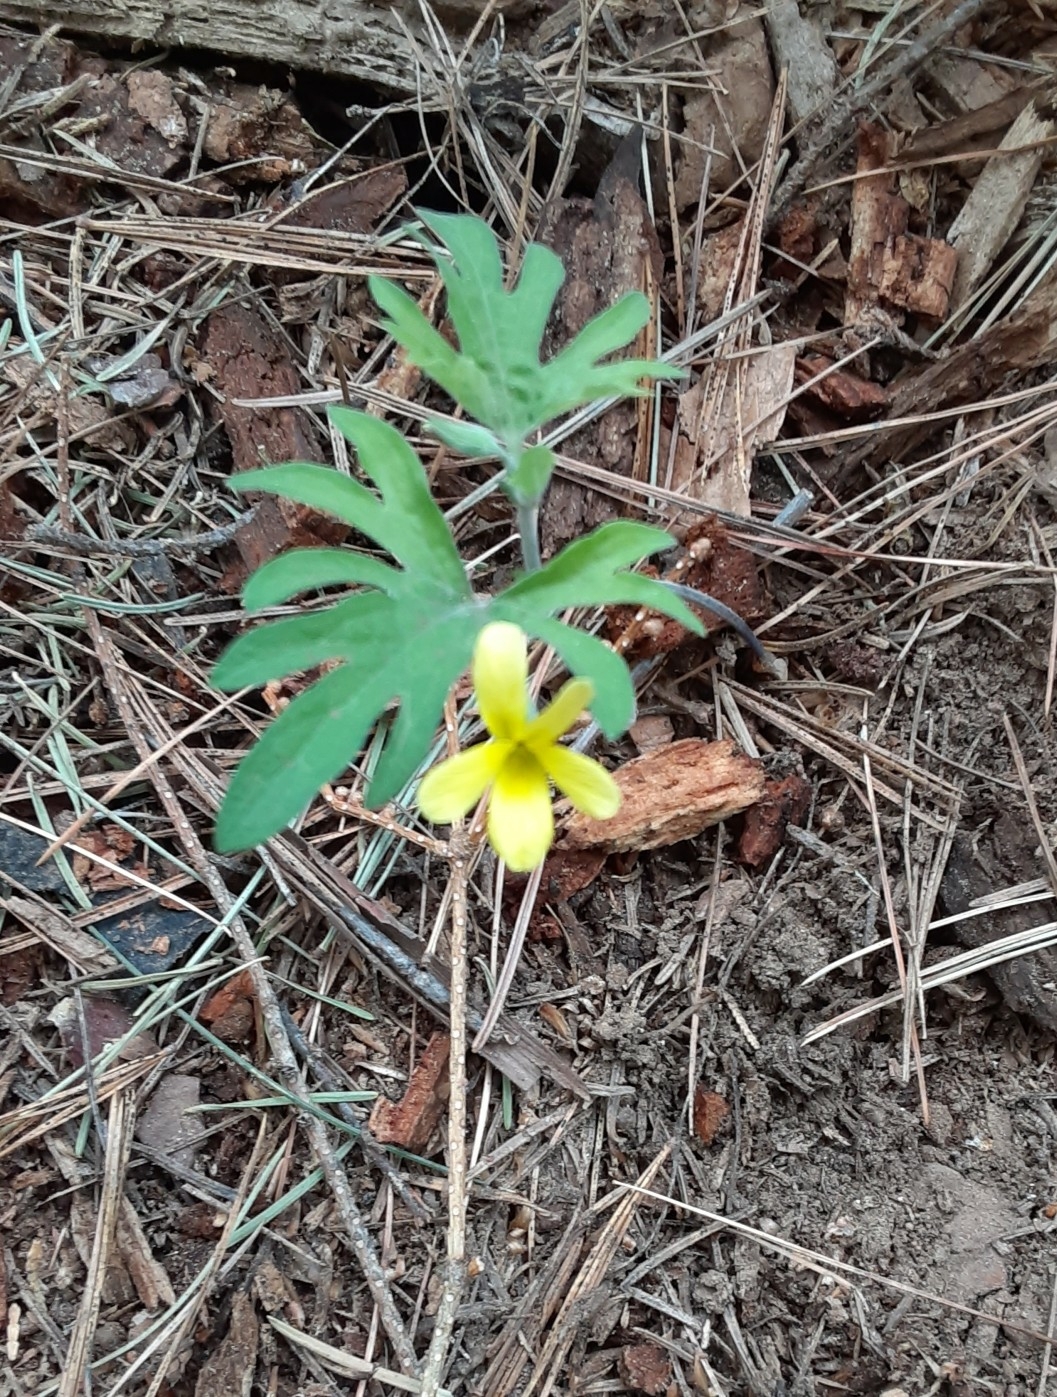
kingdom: Plantae
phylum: Tracheophyta
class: Magnoliopsida
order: Malpighiales
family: Violaceae
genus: Viola
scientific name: Viola lobata
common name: Pine violet
